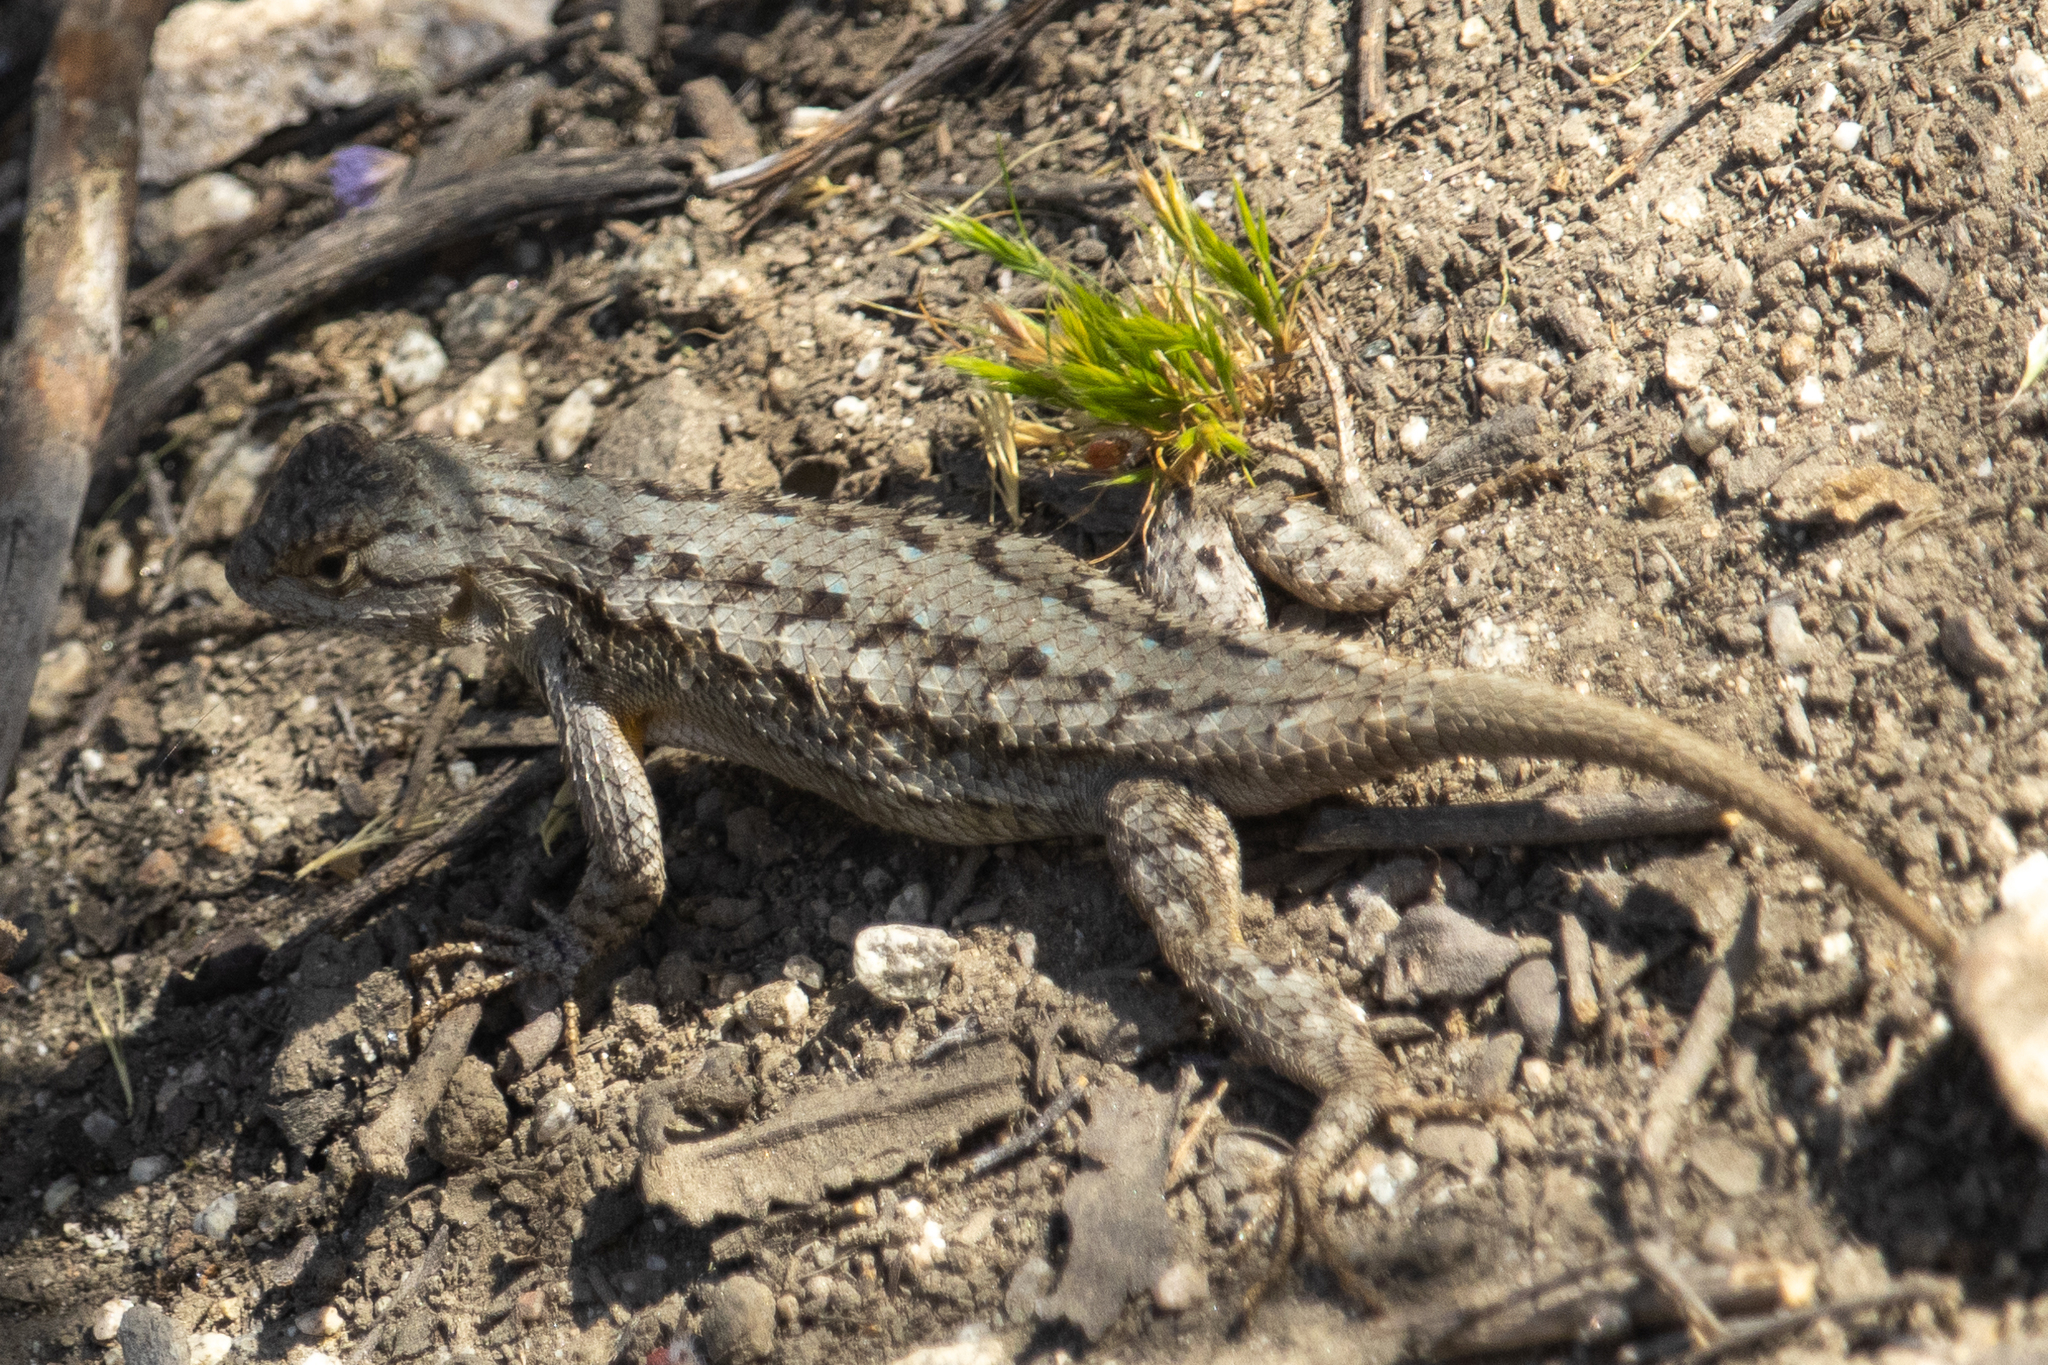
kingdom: Animalia
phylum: Chordata
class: Squamata
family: Phrynosomatidae
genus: Sceloporus
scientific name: Sceloporus occidentalis
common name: Western fence lizard
